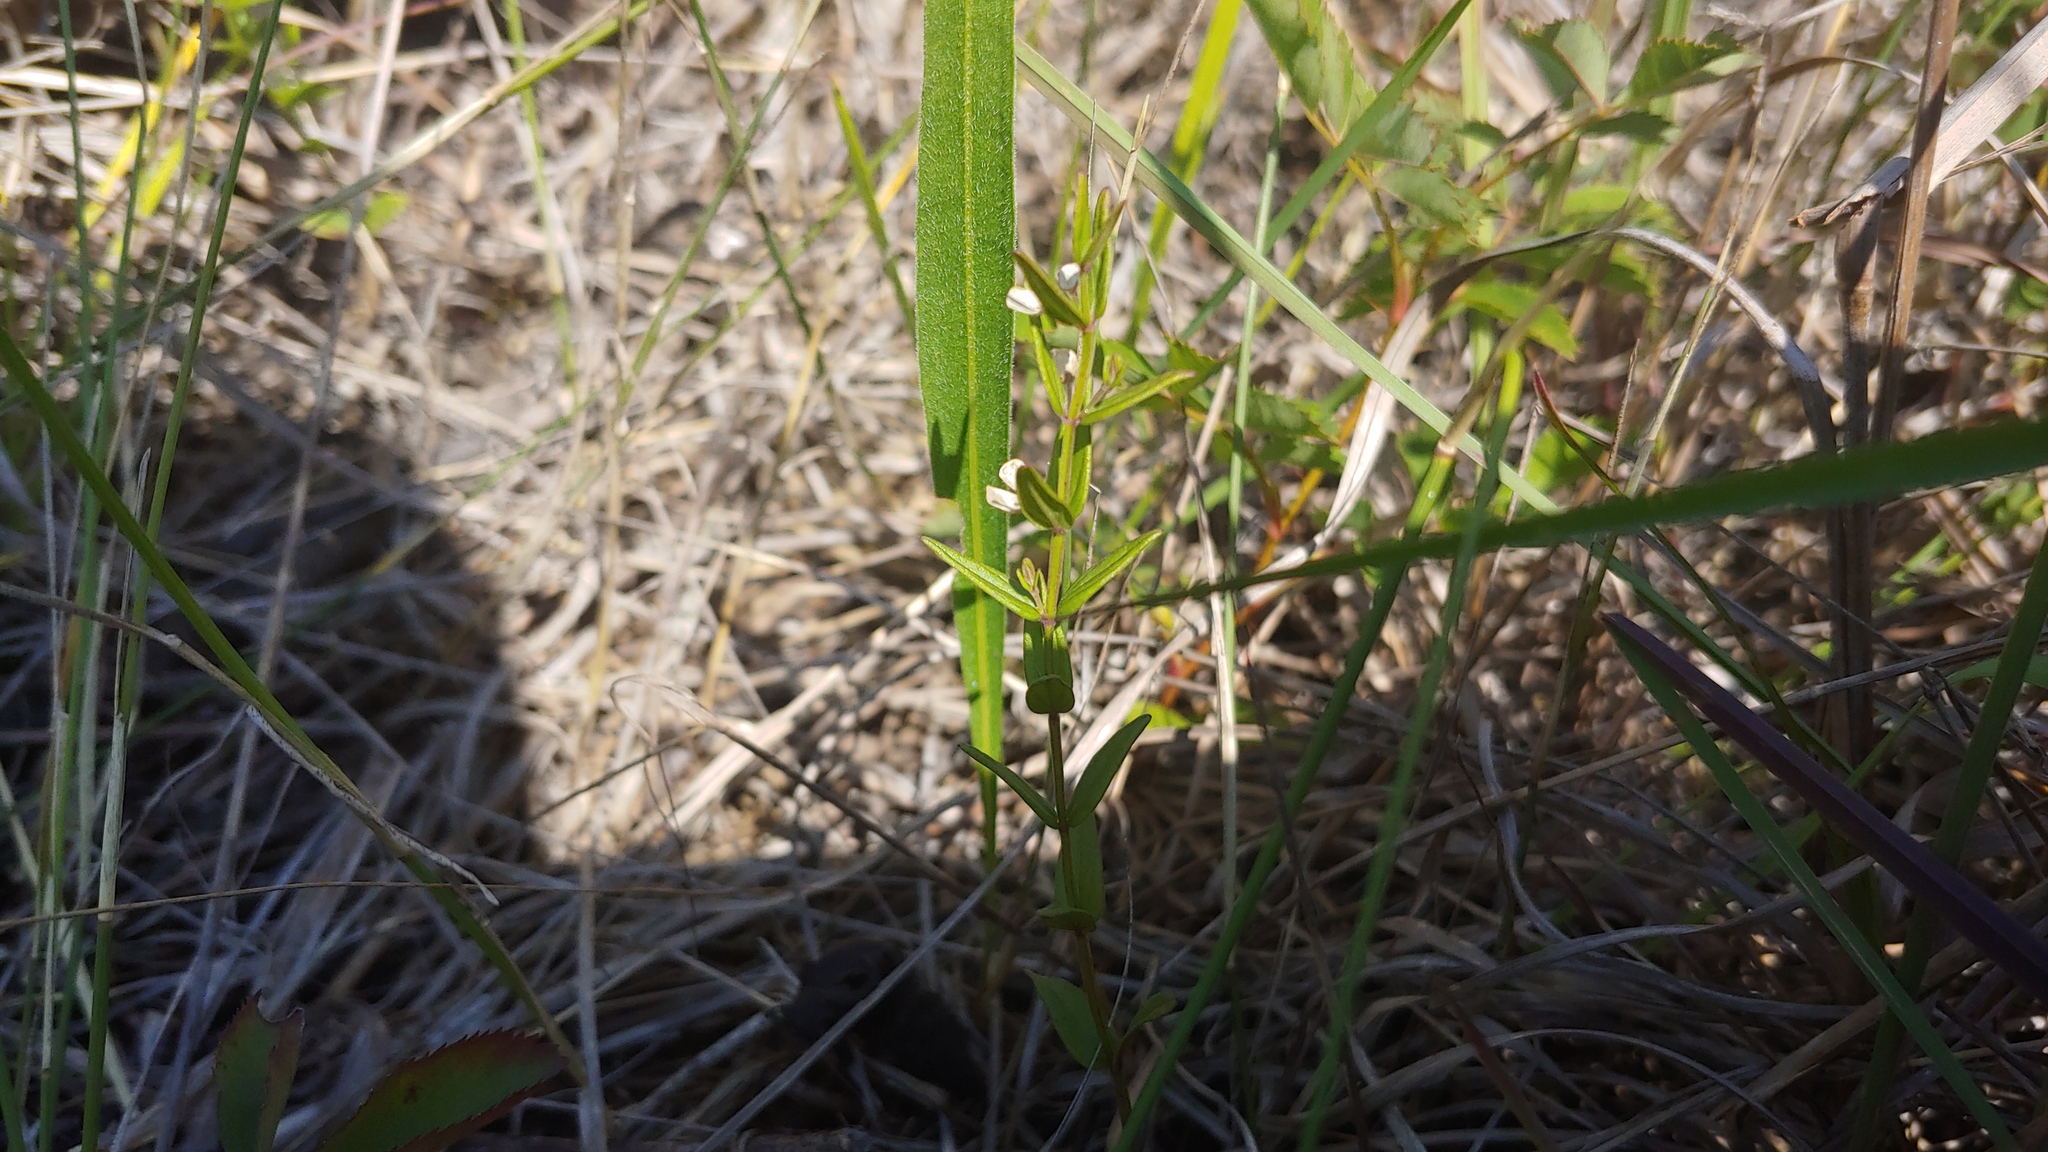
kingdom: Plantae
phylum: Tracheophyta
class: Magnoliopsida
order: Lamiales
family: Lamiaceae
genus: Scutellaria
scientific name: Scutellaria parvula
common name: Little scullcap
